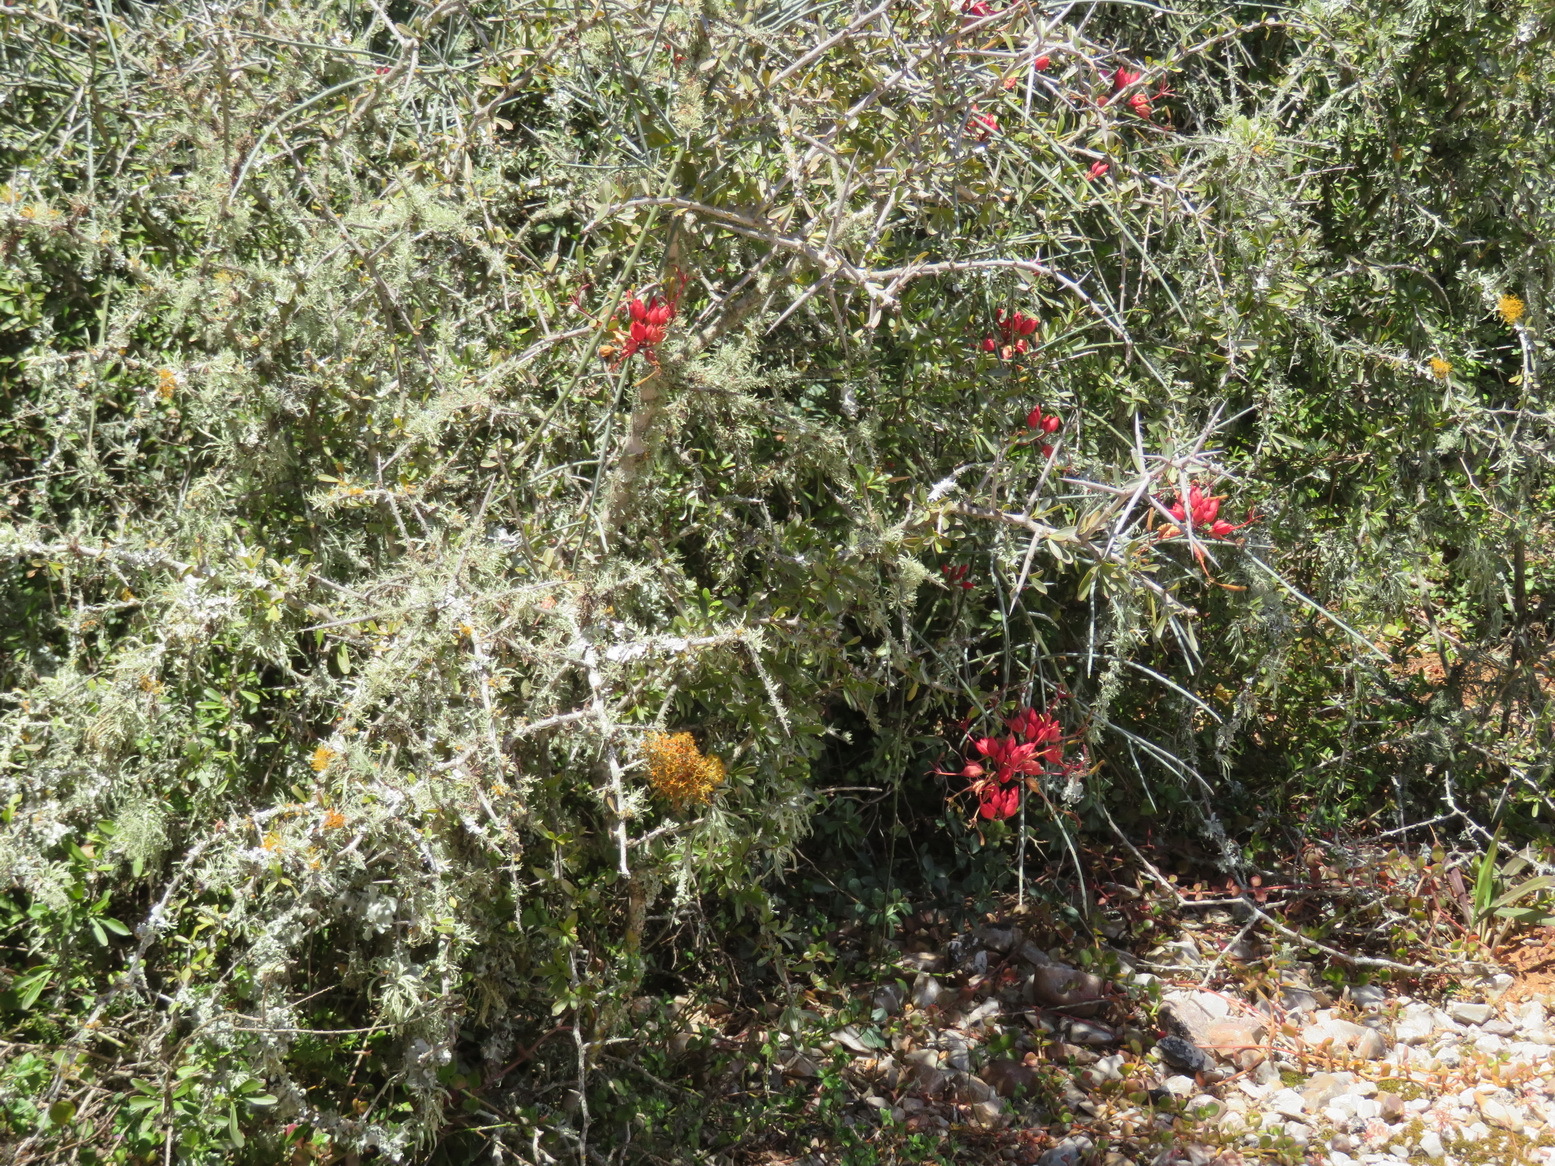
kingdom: Plantae
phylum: Tracheophyta
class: Magnoliopsida
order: Brassicales
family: Capparaceae
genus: Cadaba
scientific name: Cadaba aphylla
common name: Black storm
